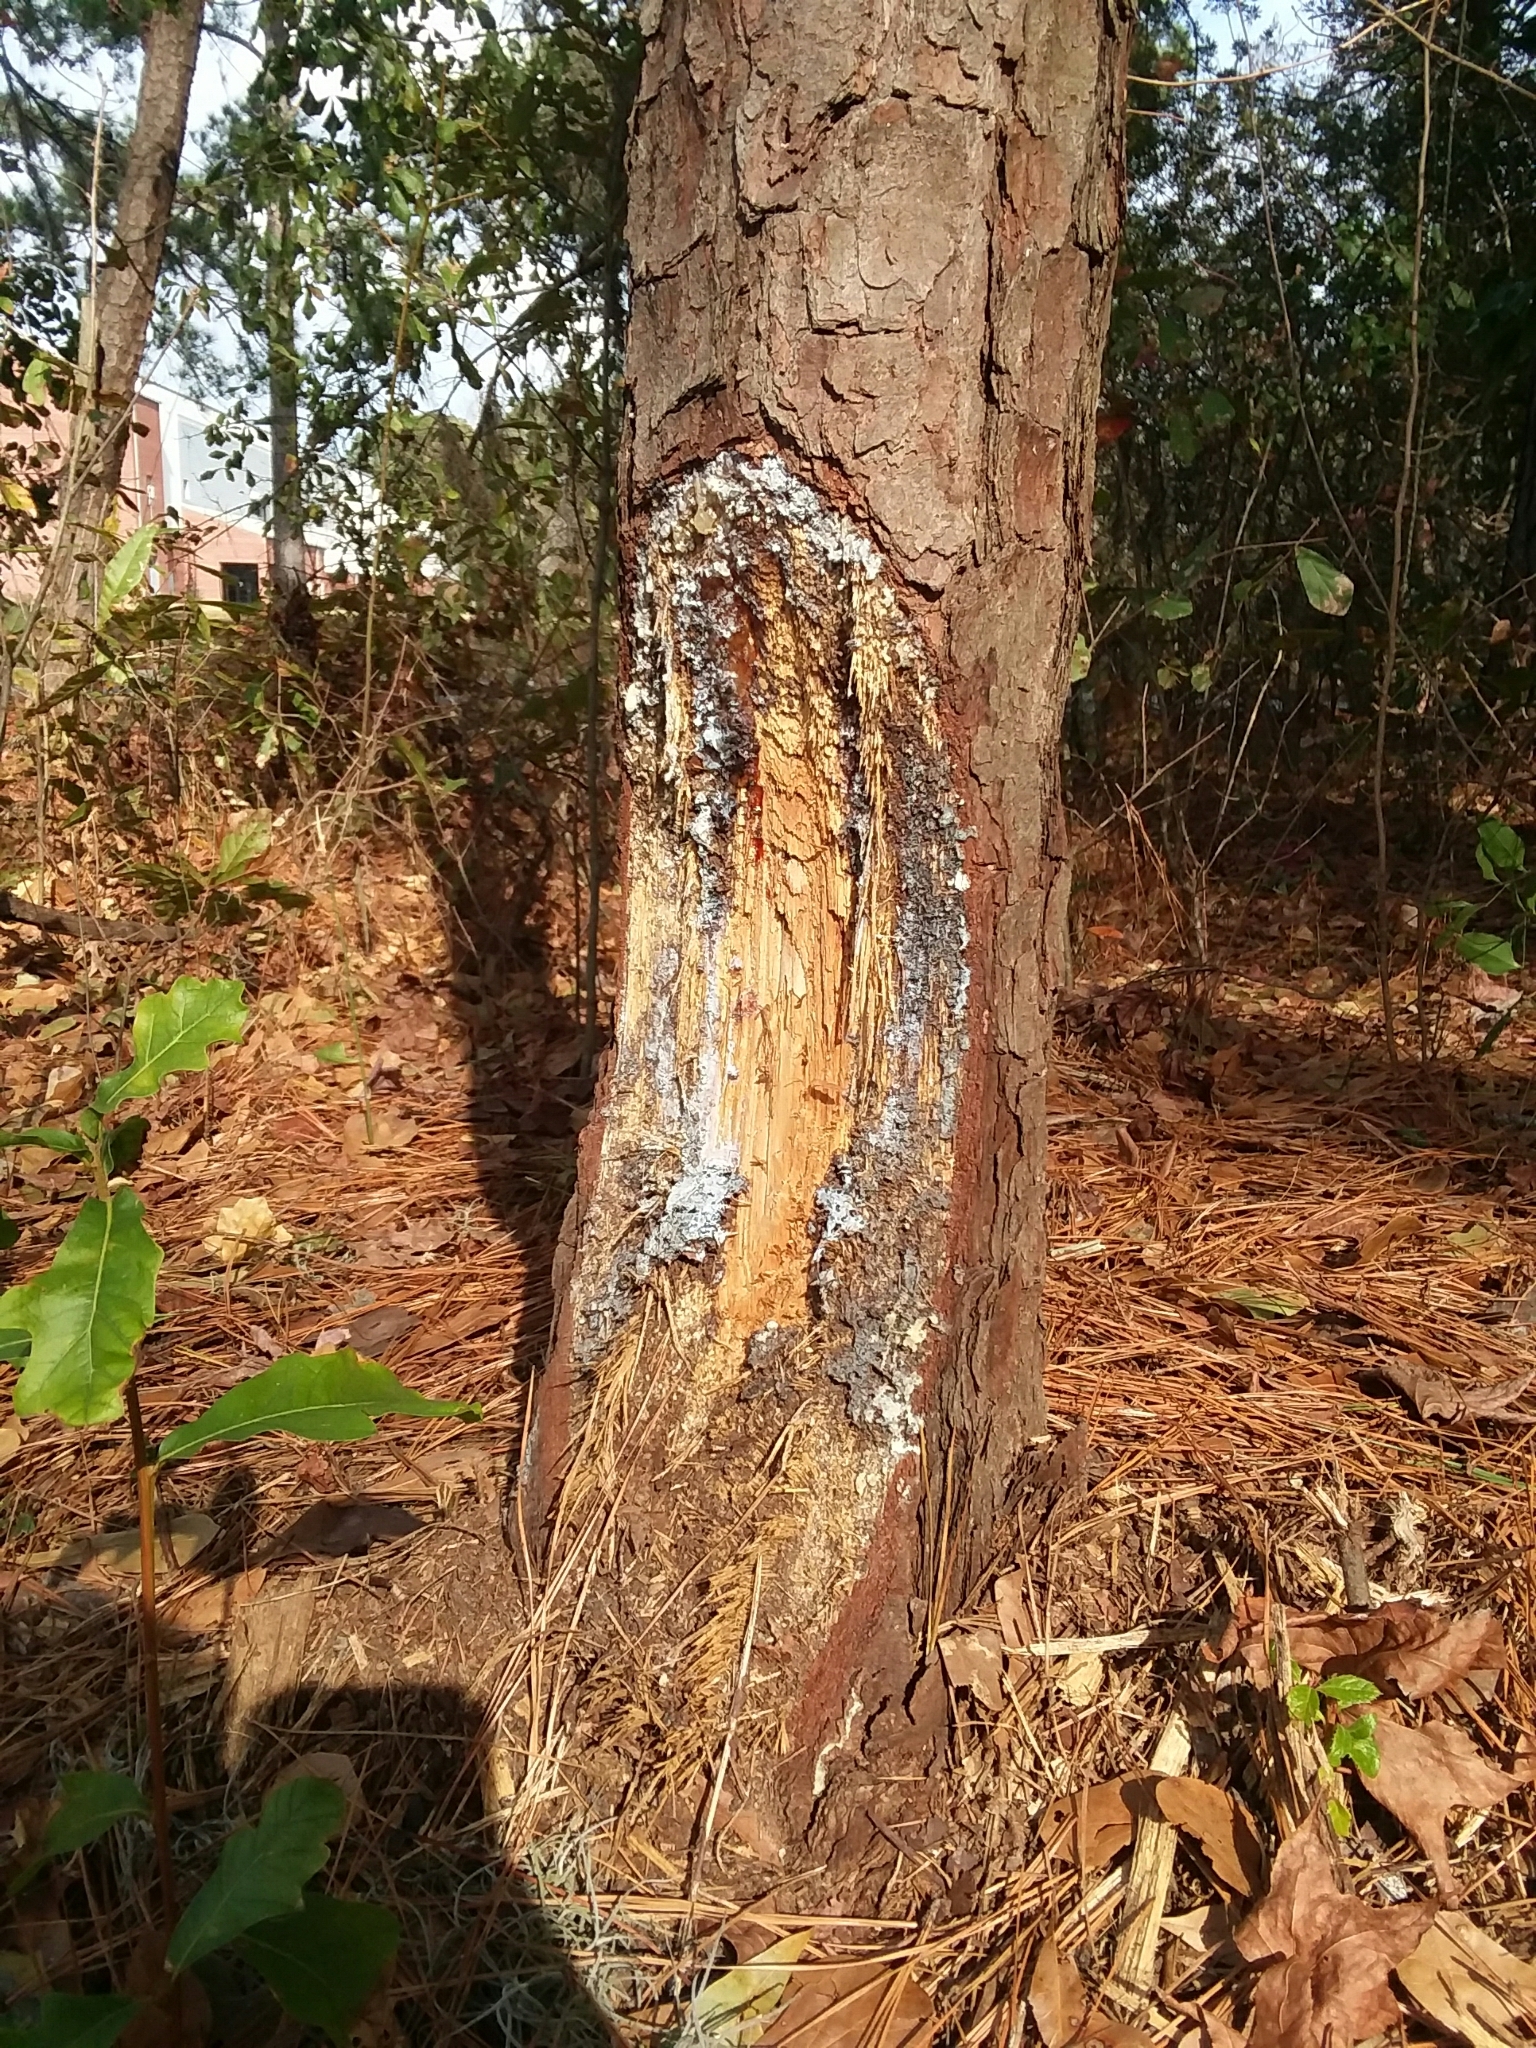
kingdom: Animalia
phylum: Chordata
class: Mammalia
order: Rodentia
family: Castoridae
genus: Castor
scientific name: Castor canadensis
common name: American beaver
